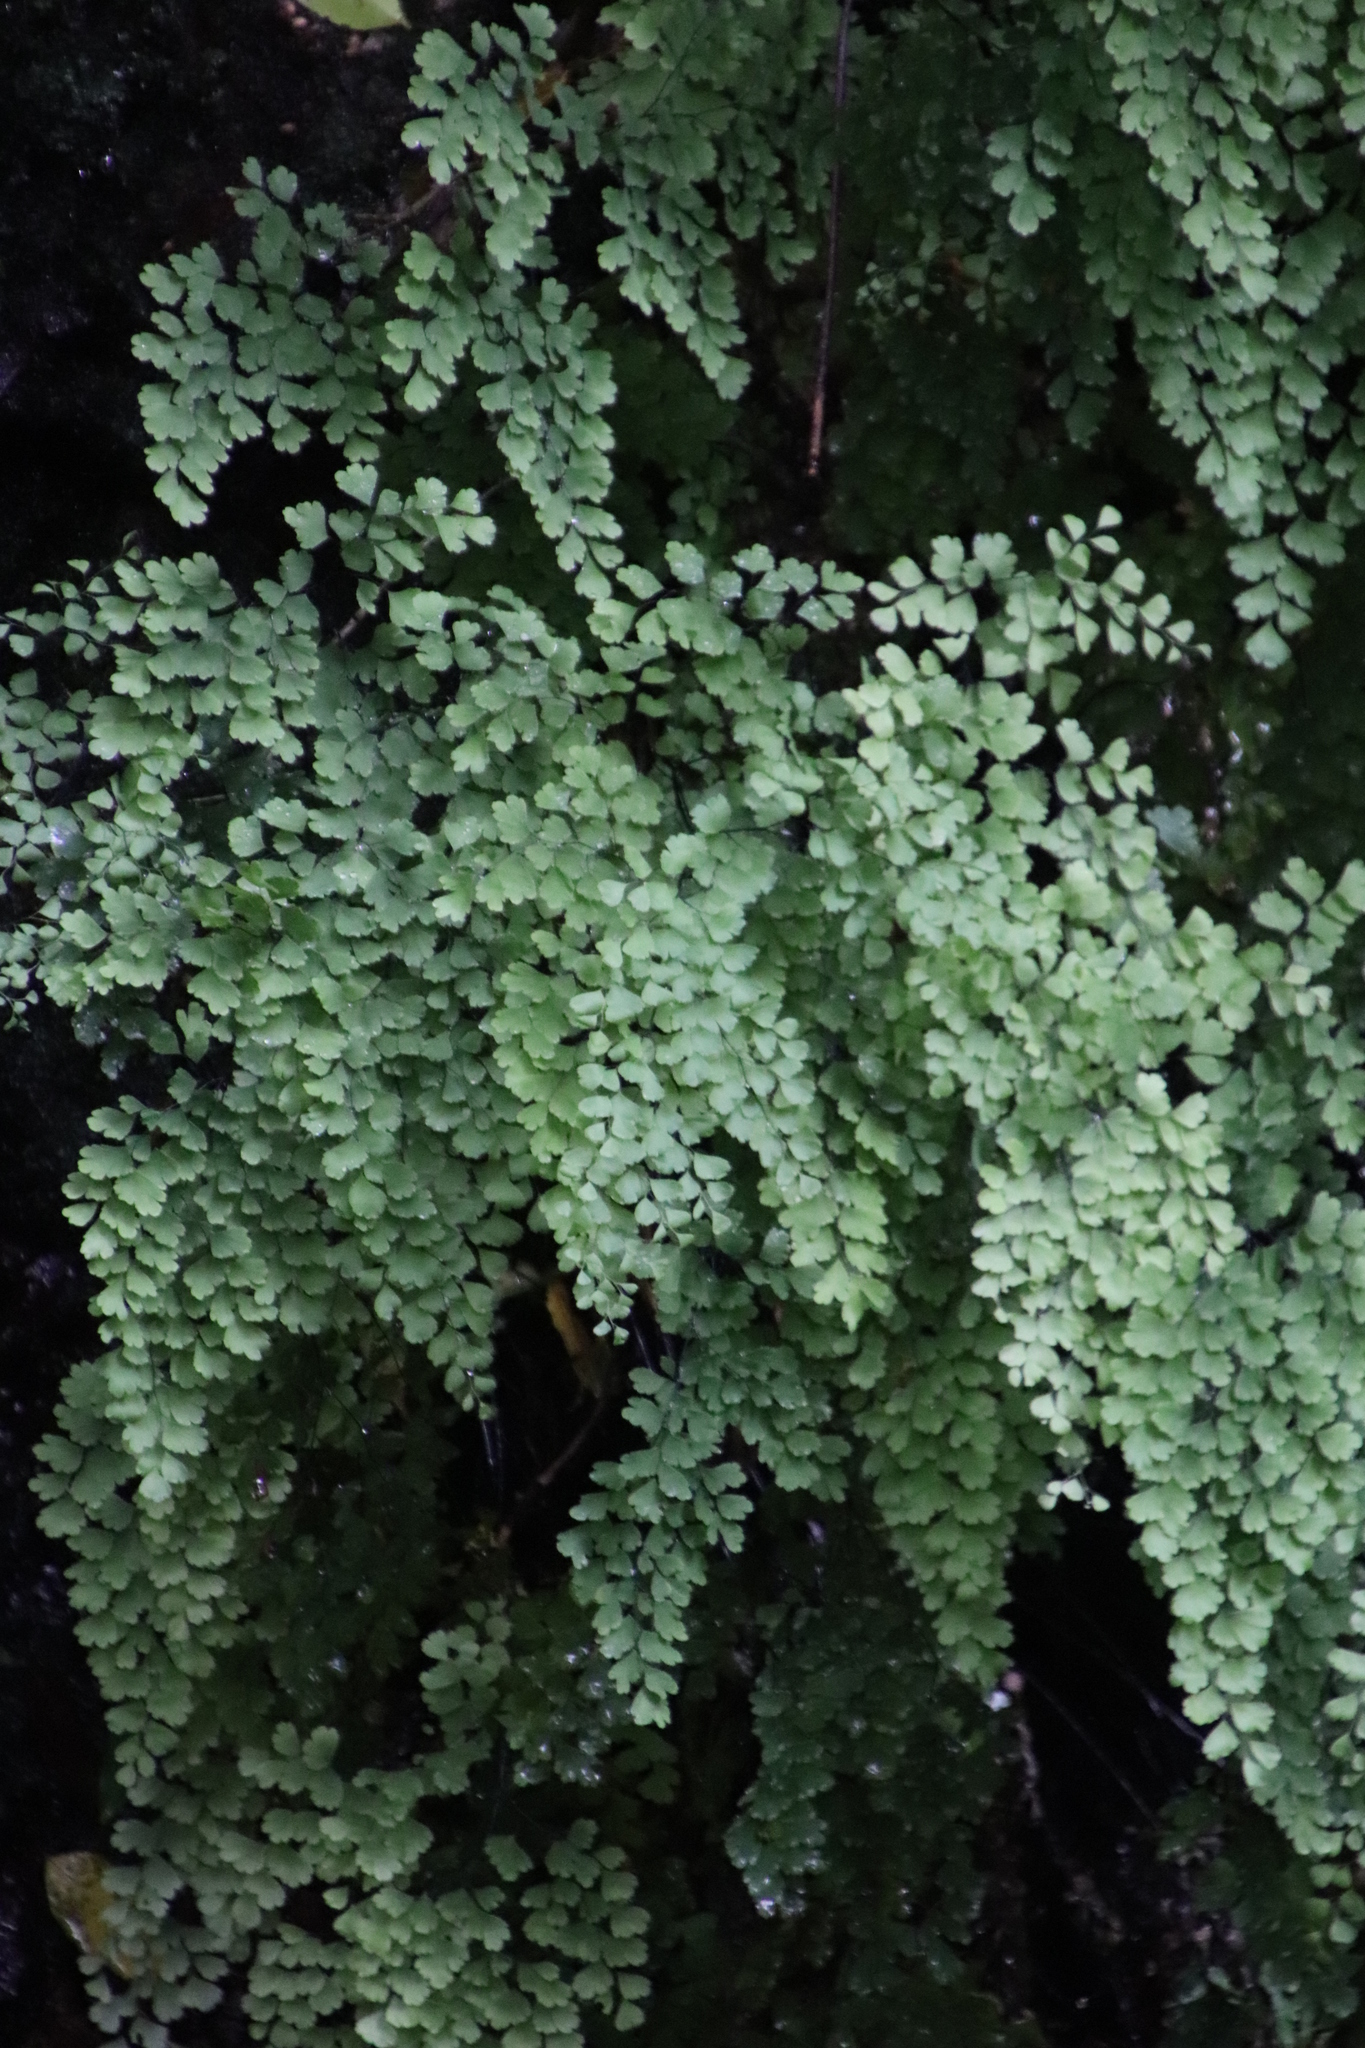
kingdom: Plantae
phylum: Tracheophyta
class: Polypodiopsida
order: Polypodiales
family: Pteridaceae
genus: Adiantum
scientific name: Adiantum capillus-veneris
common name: Maidenhair fern
